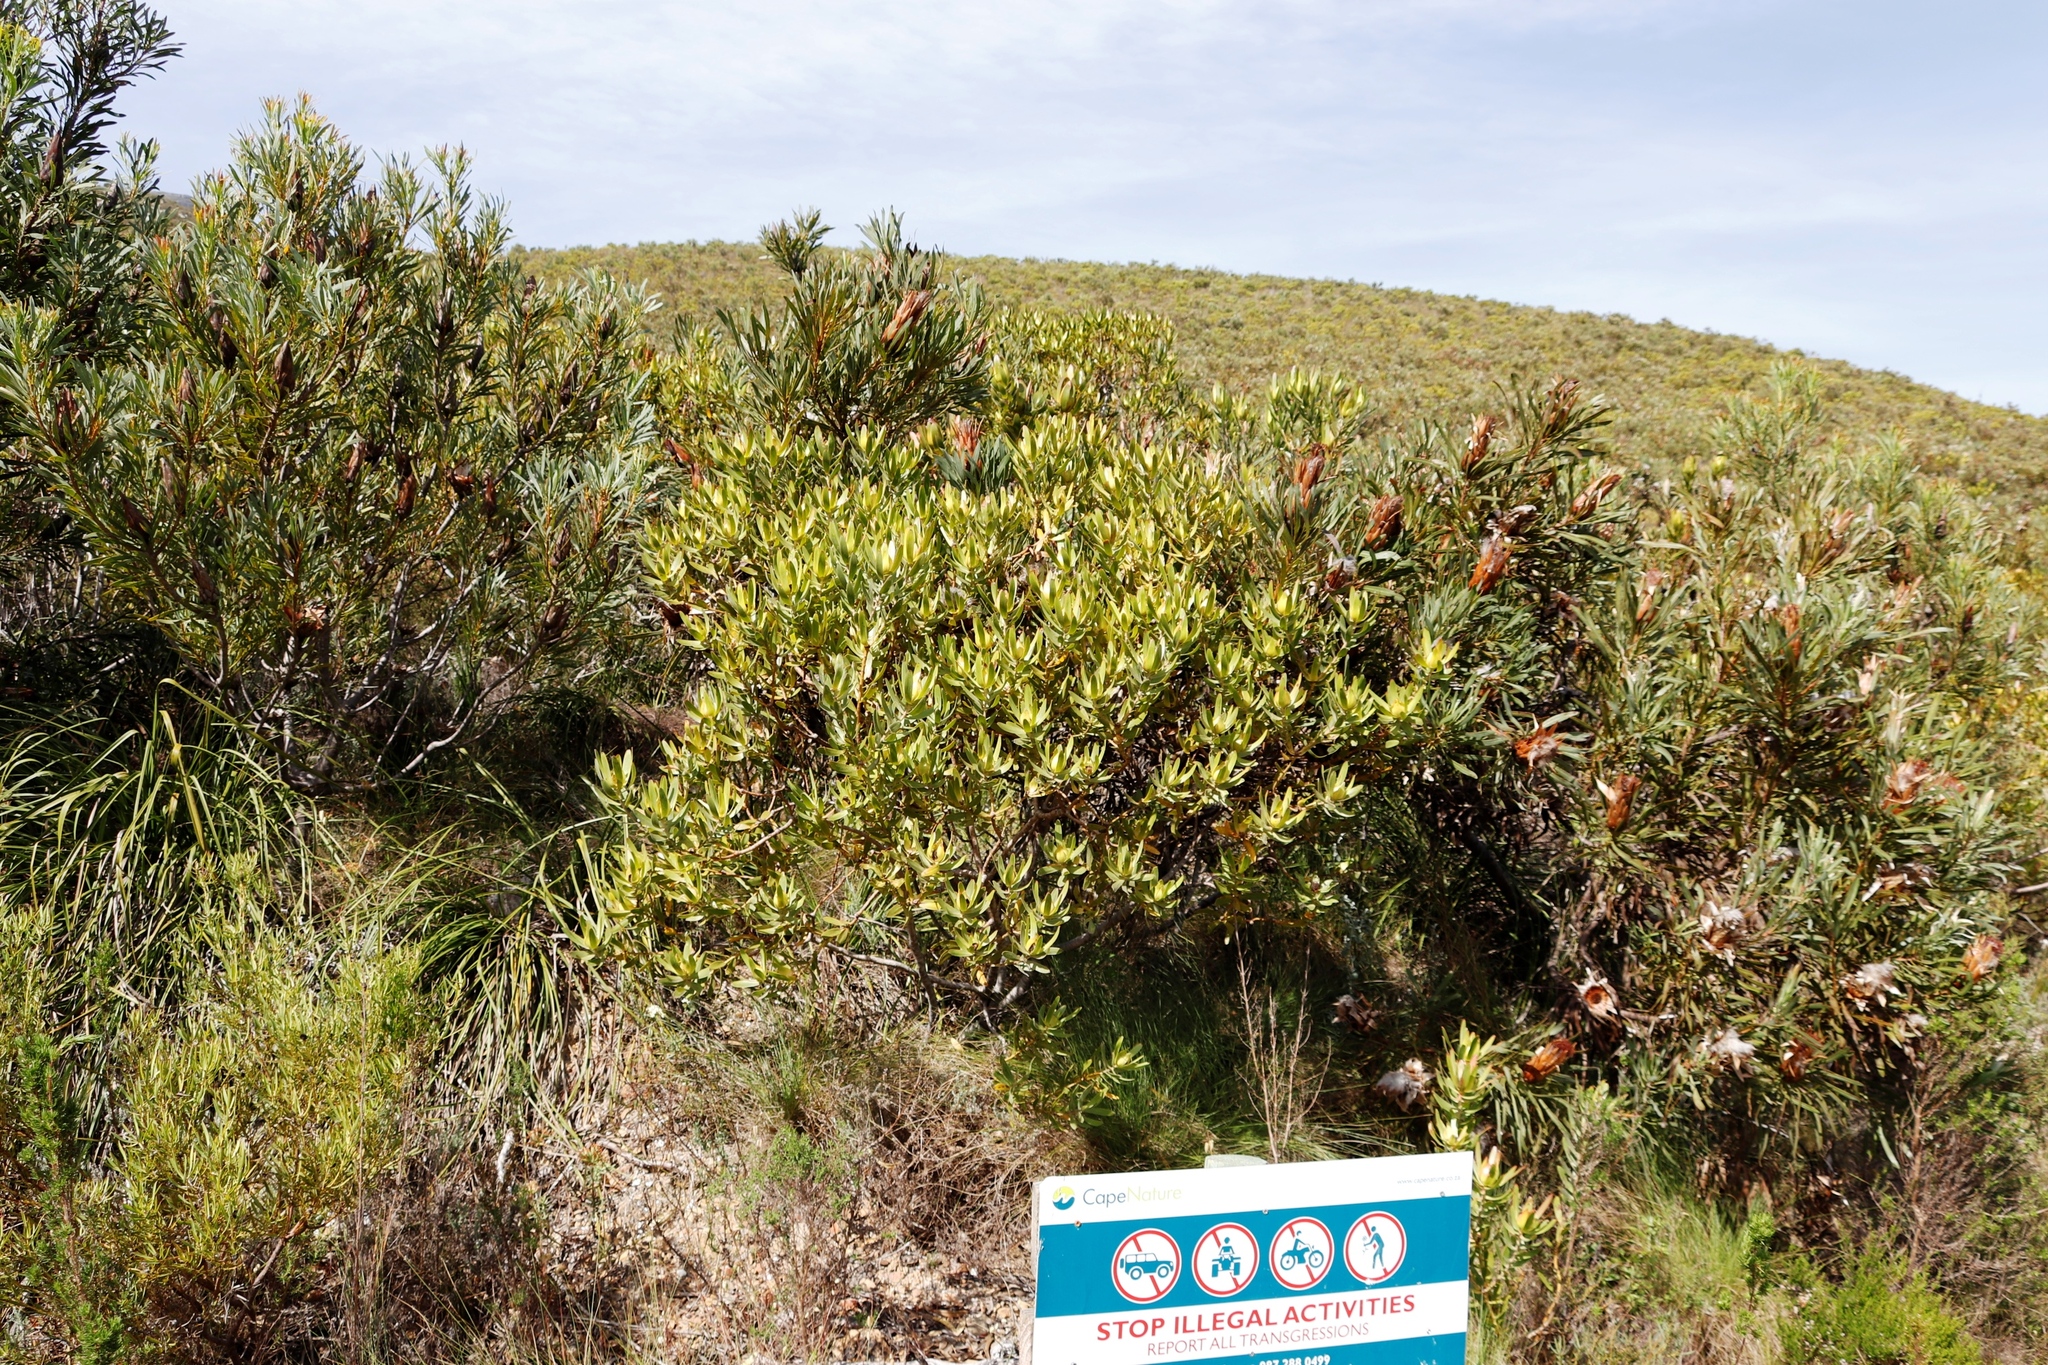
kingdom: Plantae
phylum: Tracheophyta
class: Magnoliopsida
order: Proteales
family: Proteaceae
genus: Leucadendron
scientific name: Leucadendron laureolum
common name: Golden sunshinebush
